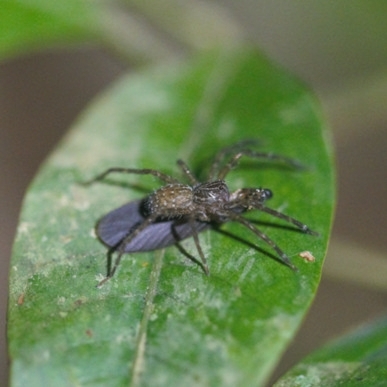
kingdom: Animalia
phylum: Arthropoda
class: Arachnida
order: Araneae
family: Ctenidae
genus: Phoneutria
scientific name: Phoneutria fera
